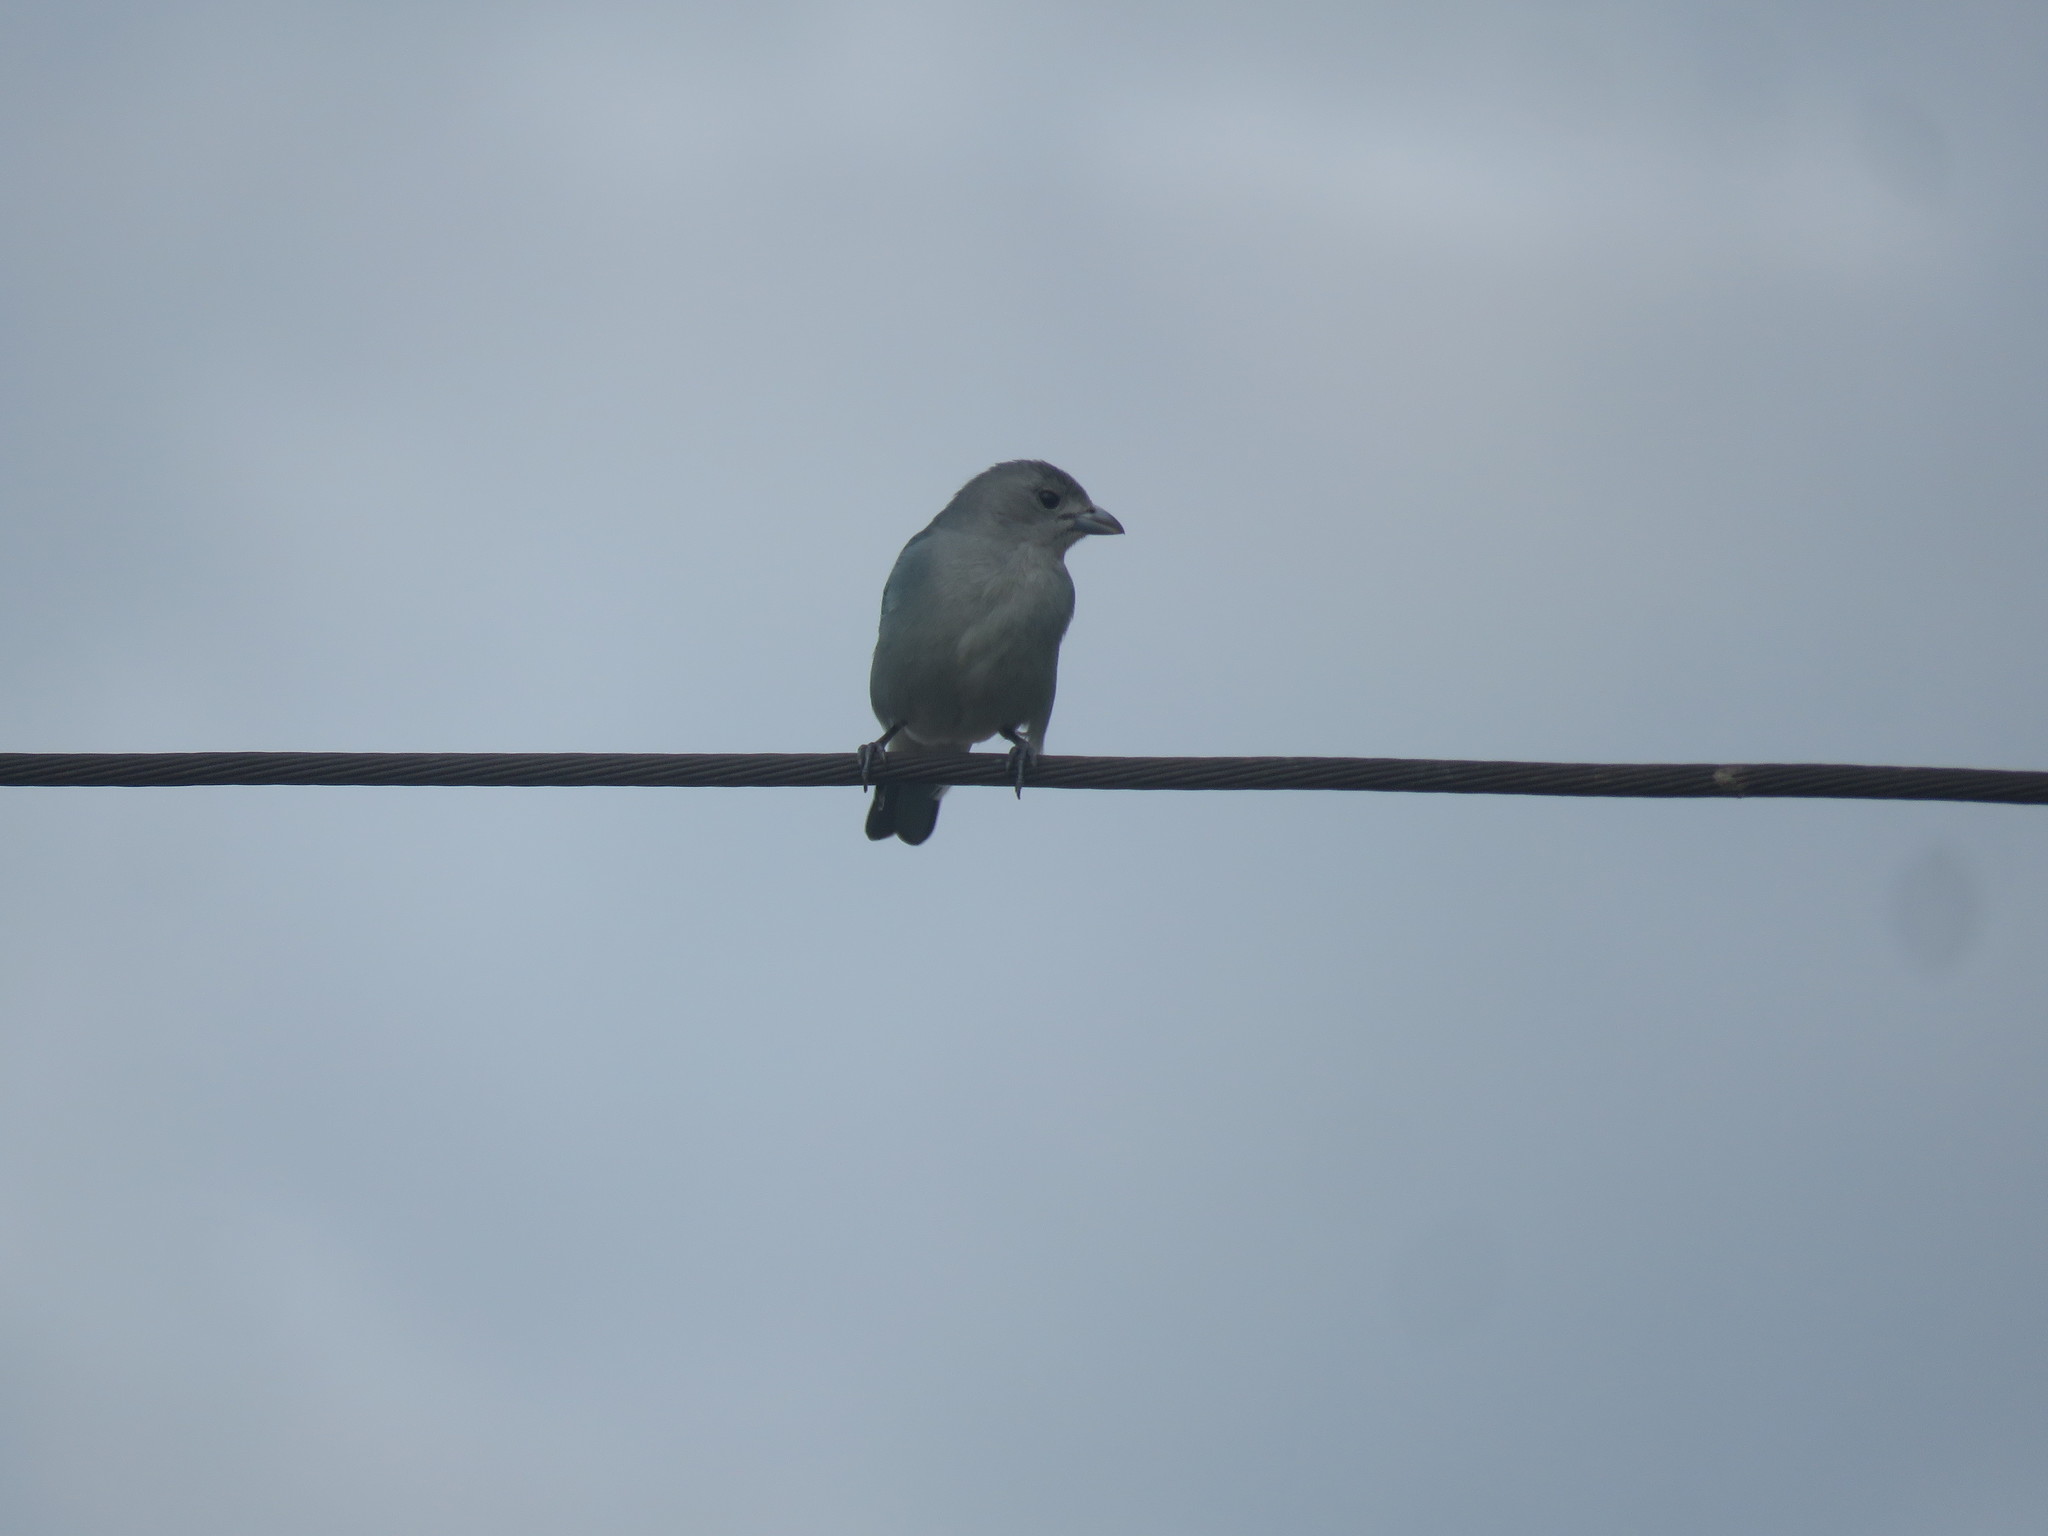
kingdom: Animalia
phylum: Chordata
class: Aves
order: Passeriformes
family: Thraupidae
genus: Thraupis
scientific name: Thraupis sayaca
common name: Sayaca tanager
